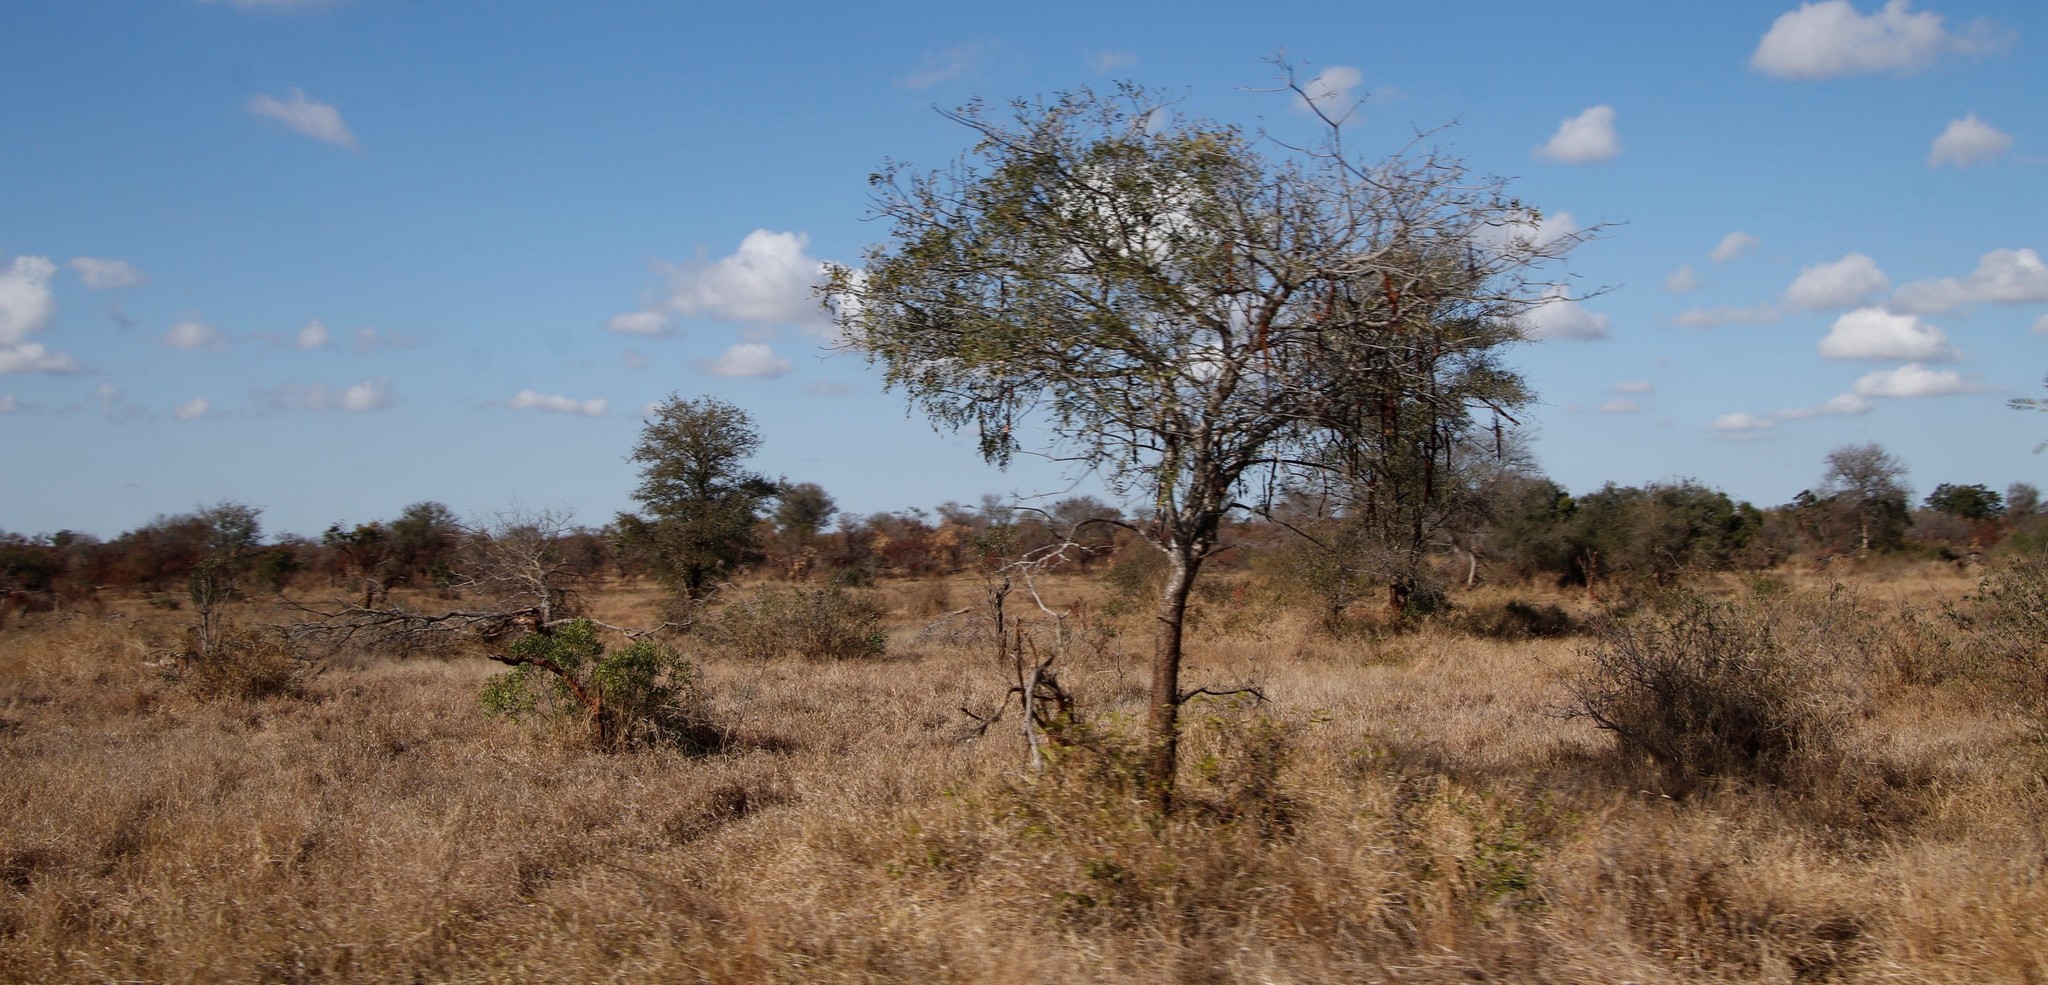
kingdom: Plantae
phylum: Tracheophyta
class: Magnoliopsida
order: Fabales
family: Fabaceae
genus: Cassia
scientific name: Cassia abbreviata
